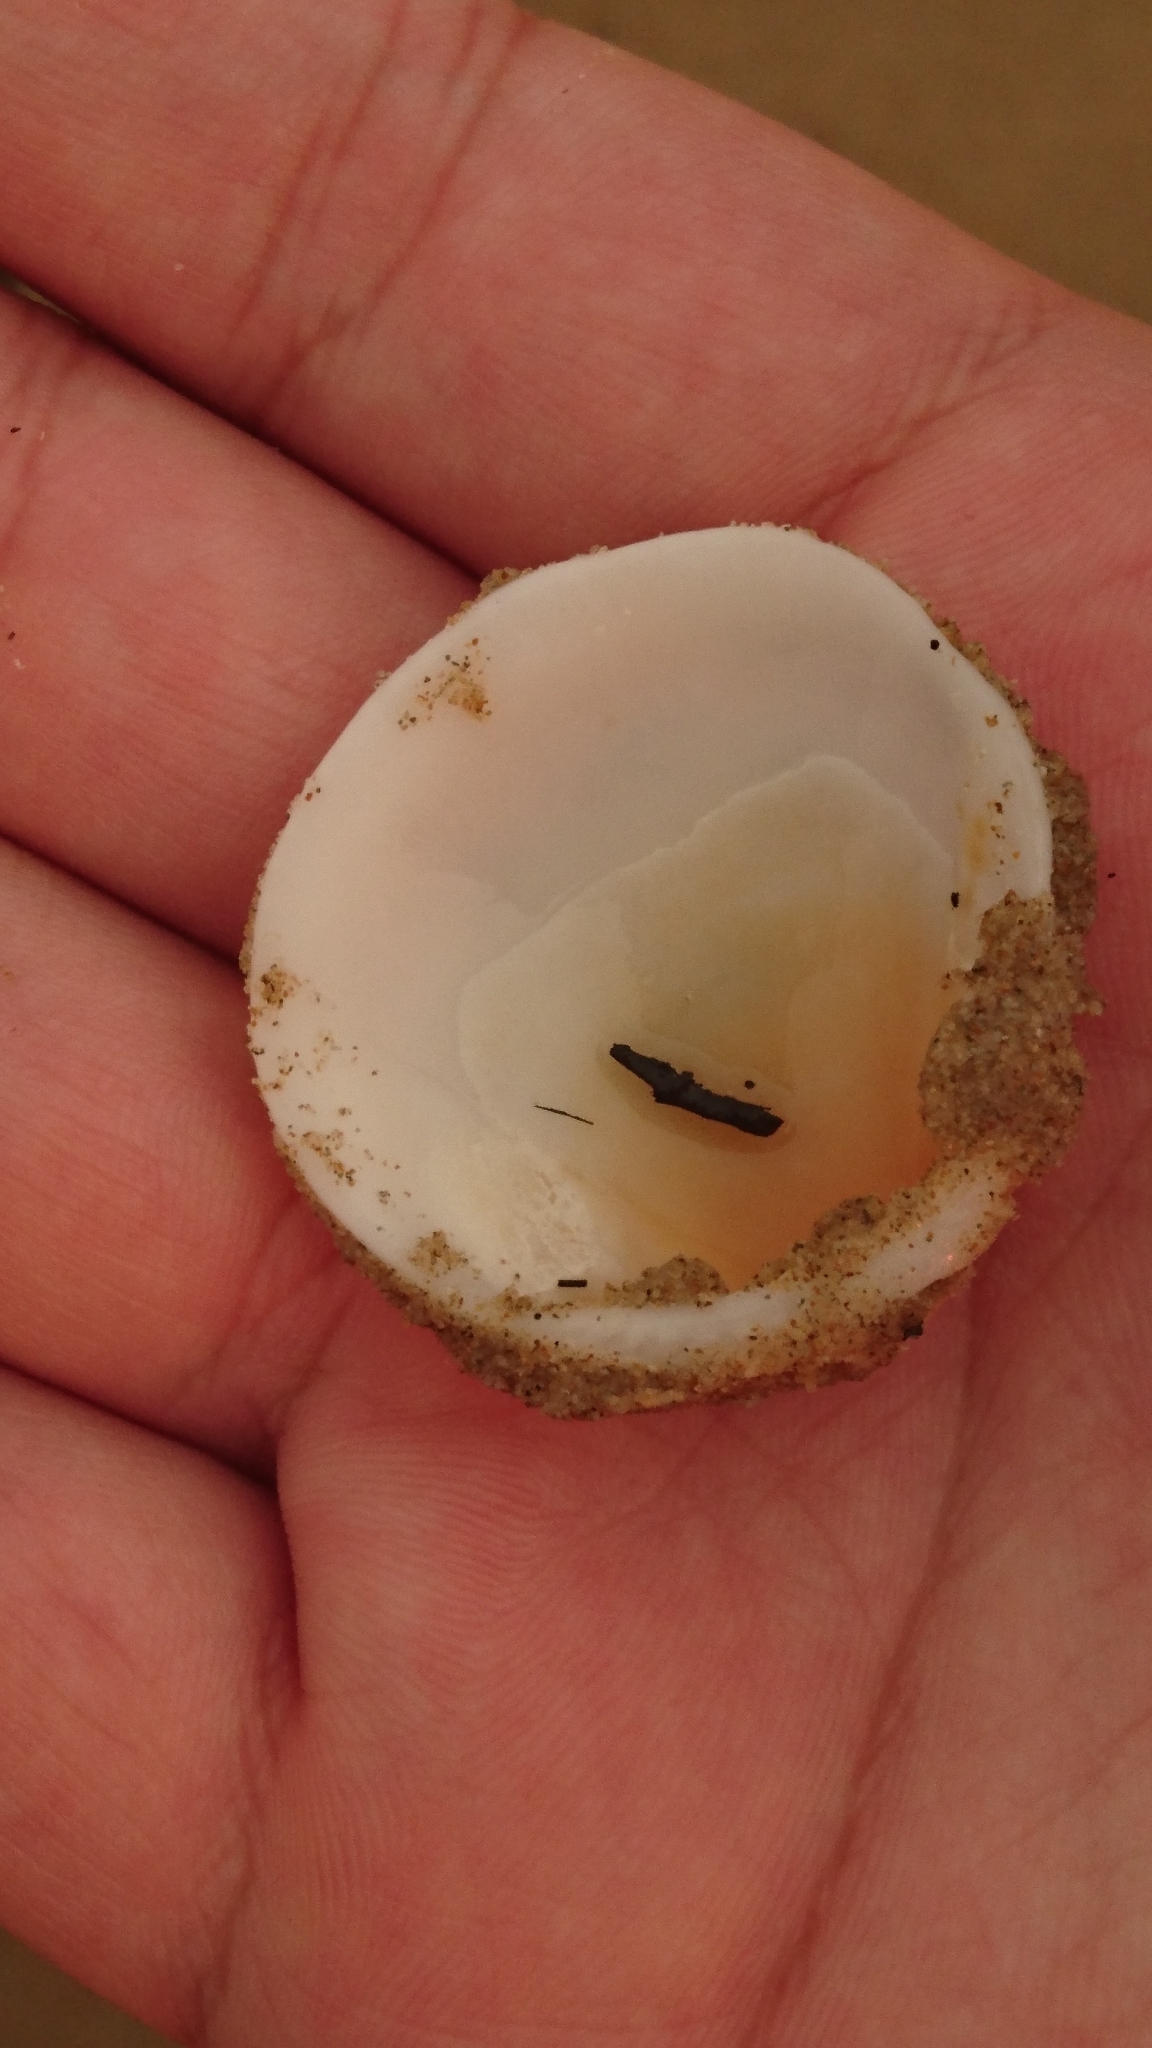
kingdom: Animalia
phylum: Mollusca
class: Bivalvia
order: Arcida
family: Glycymerididae
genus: Glycymeris
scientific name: Glycymeris holoserica
